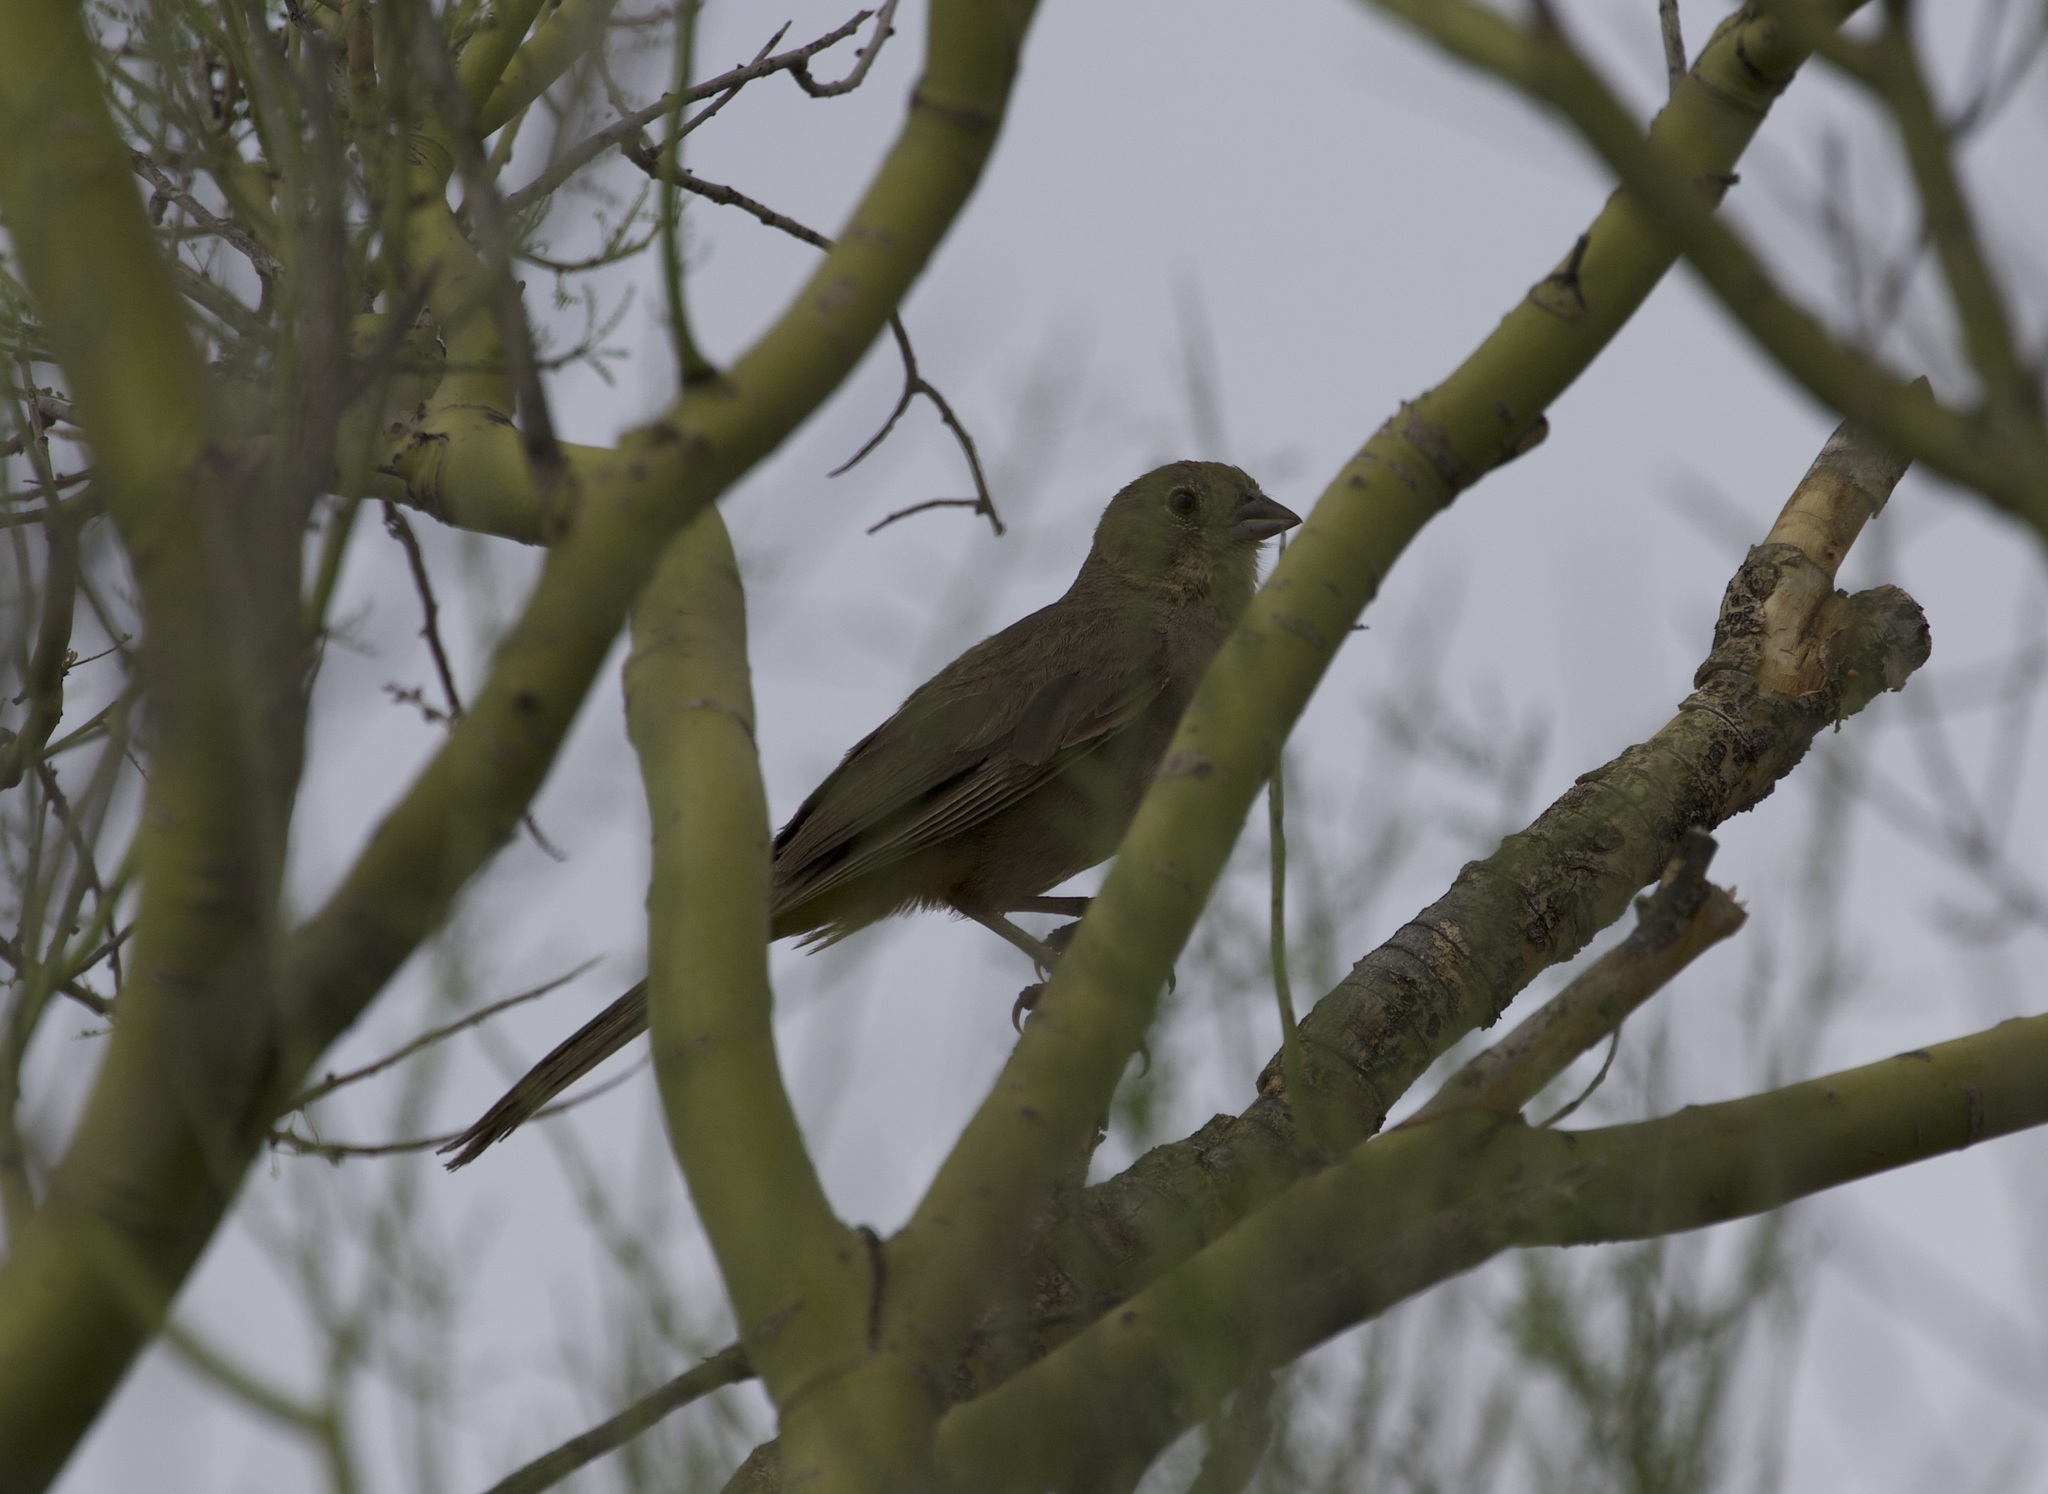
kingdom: Animalia
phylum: Chordata
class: Aves
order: Passeriformes
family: Passerellidae
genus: Melozone
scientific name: Melozone fusca
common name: Canyon towhee
